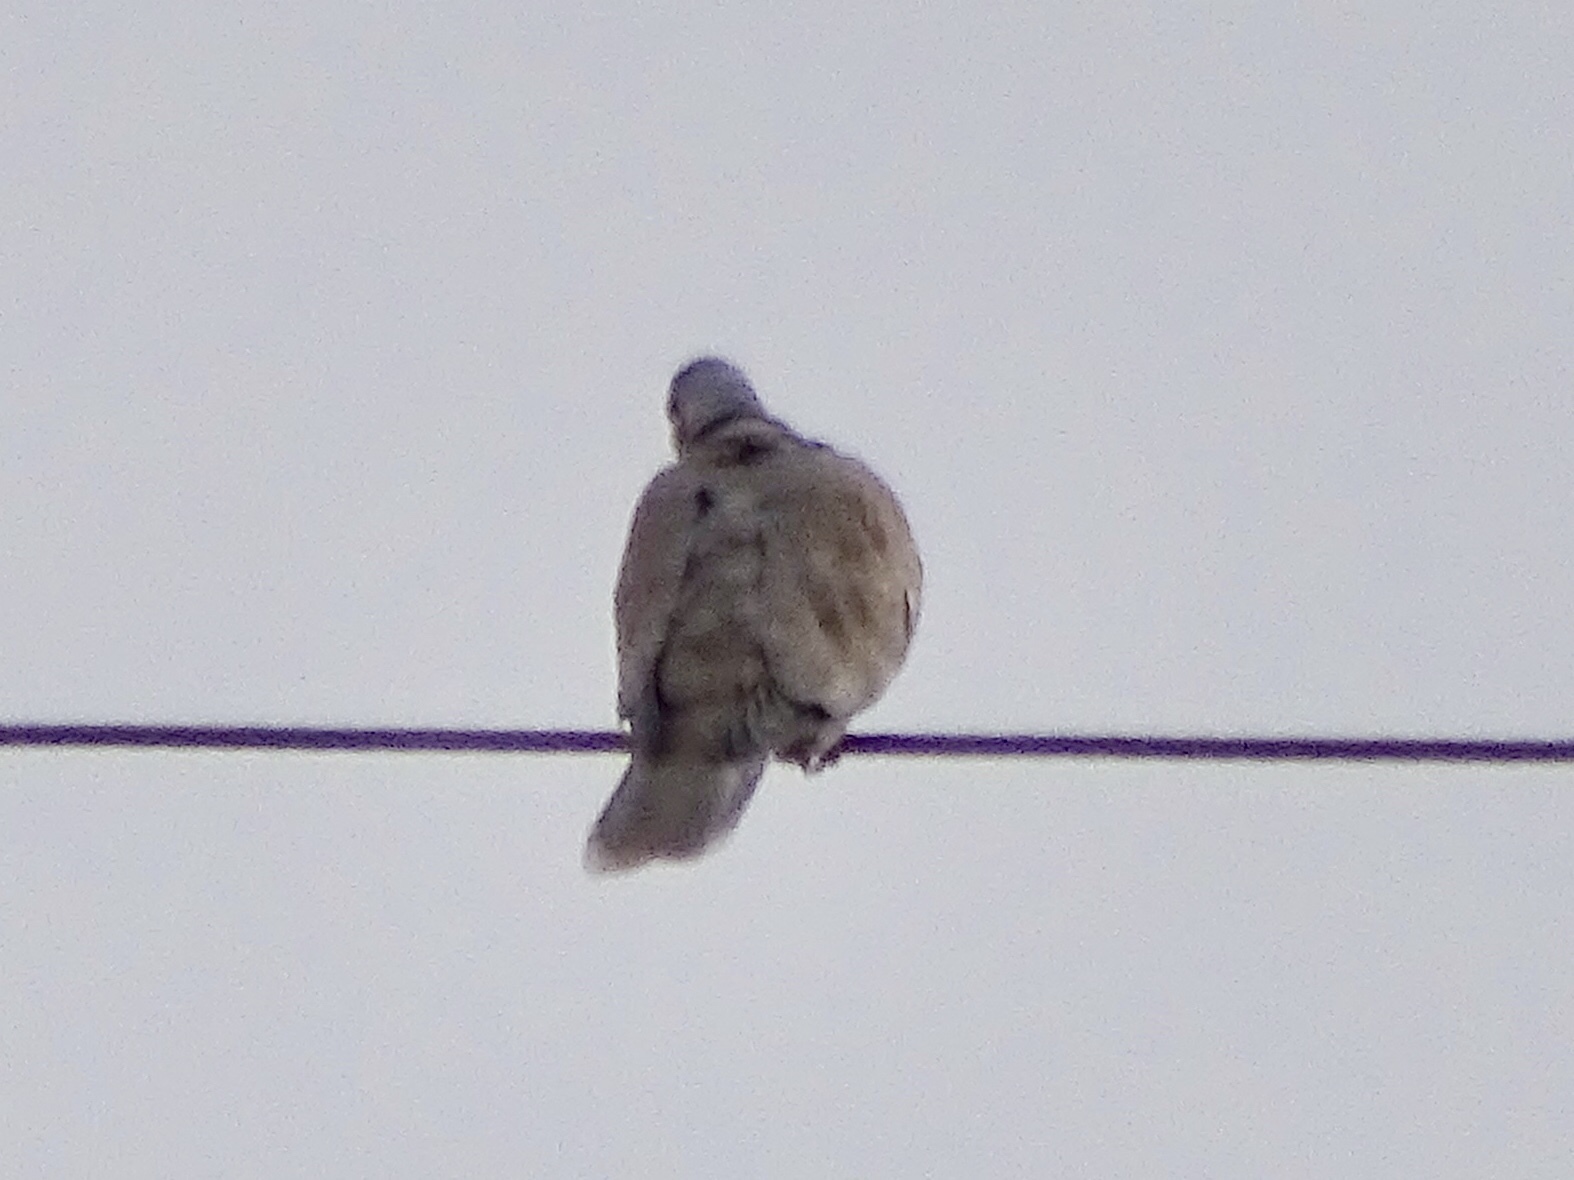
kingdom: Animalia
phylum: Chordata
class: Aves
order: Columbiformes
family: Columbidae
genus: Streptopelia
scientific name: Streptopelia decaocto
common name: Eurasian collared dove
